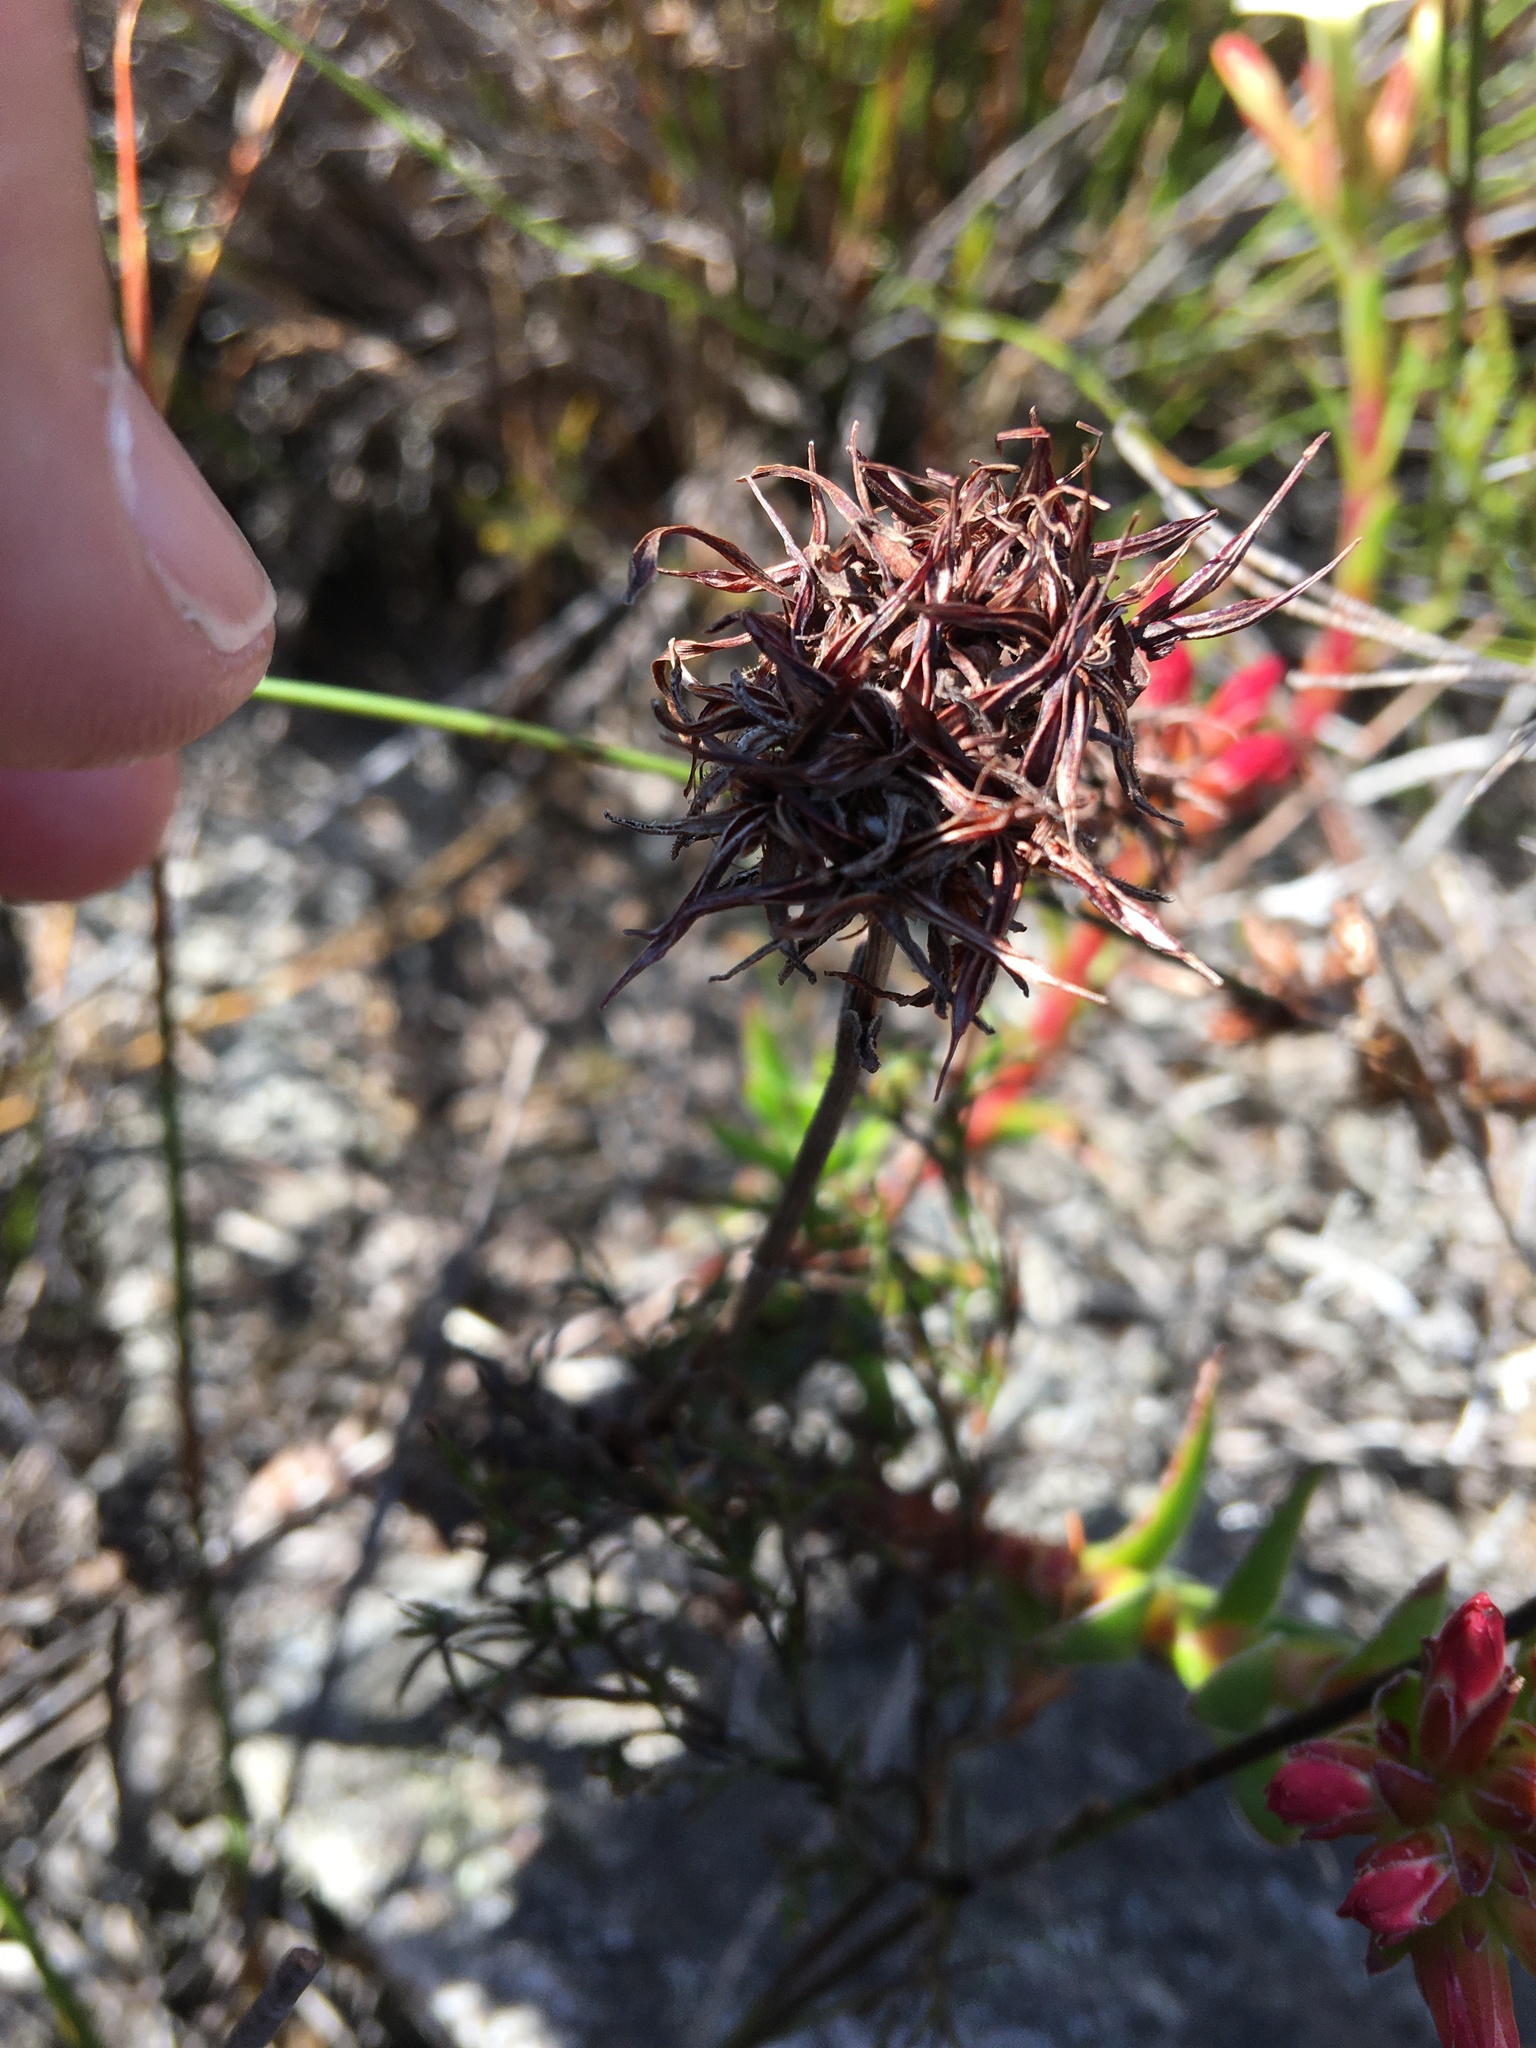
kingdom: Plantae
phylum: Tracheophyta
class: Magnoliopsida
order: Saxifragales
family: Crassulaceae
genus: Crassula
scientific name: Crassula fascicularis
